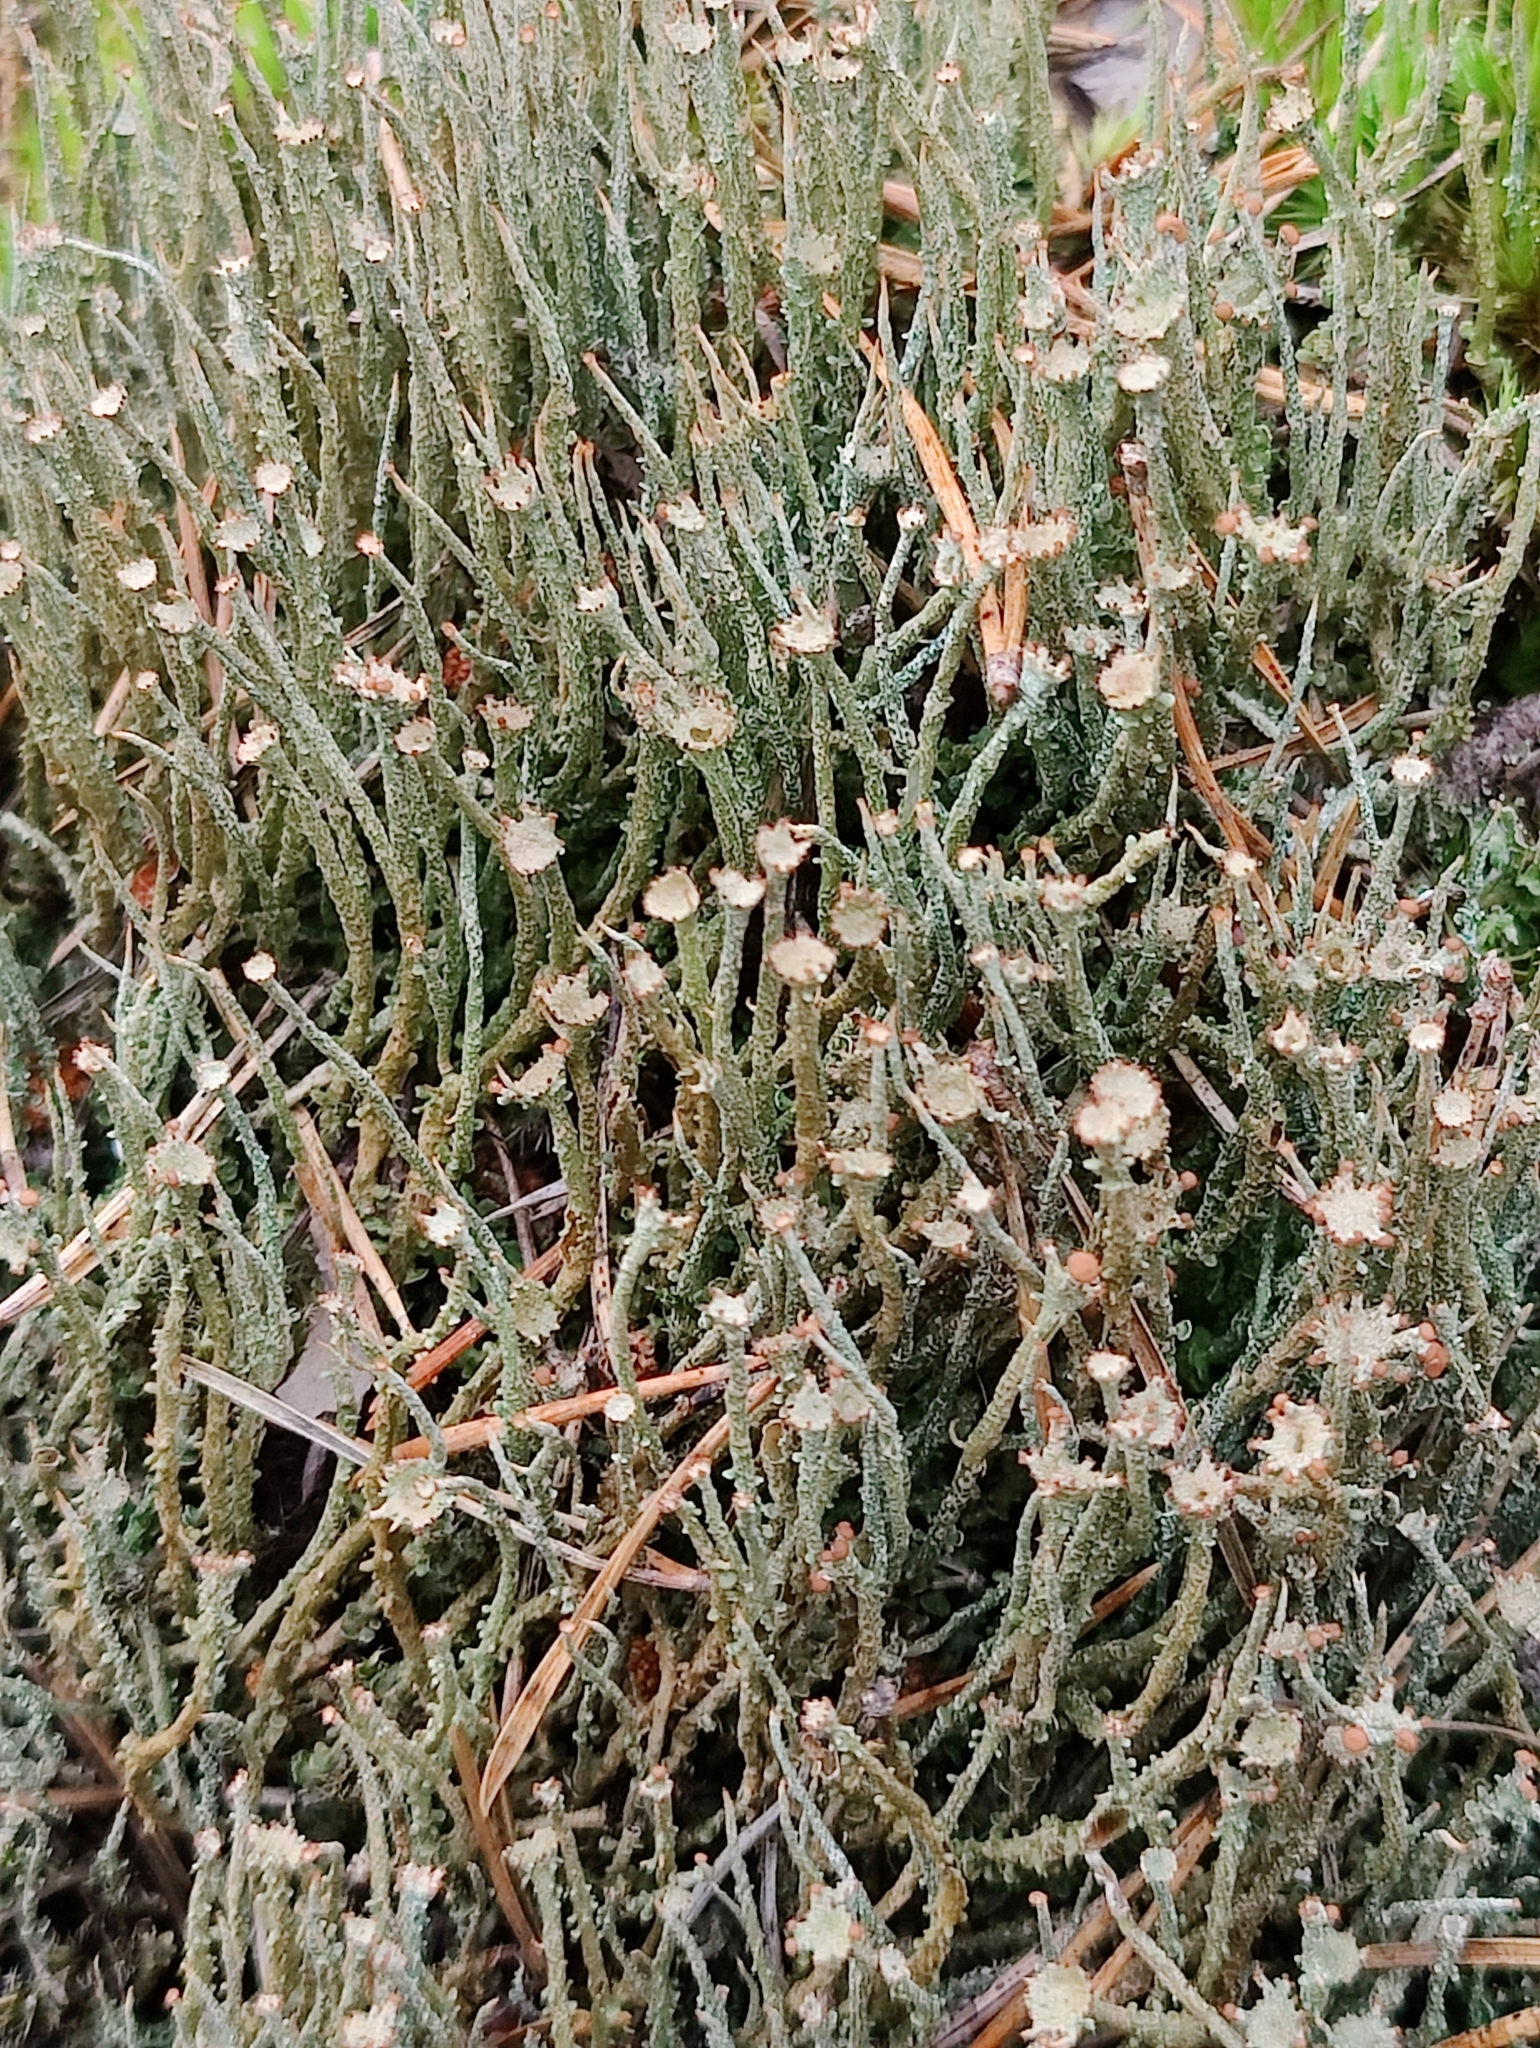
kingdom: Fungi
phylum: Ascomycota
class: Lecanoromycetes
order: Lecanorales
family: Cladoniaceae
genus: Cladonia
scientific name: Cladonia gracilis
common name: Smooth clad lichen
